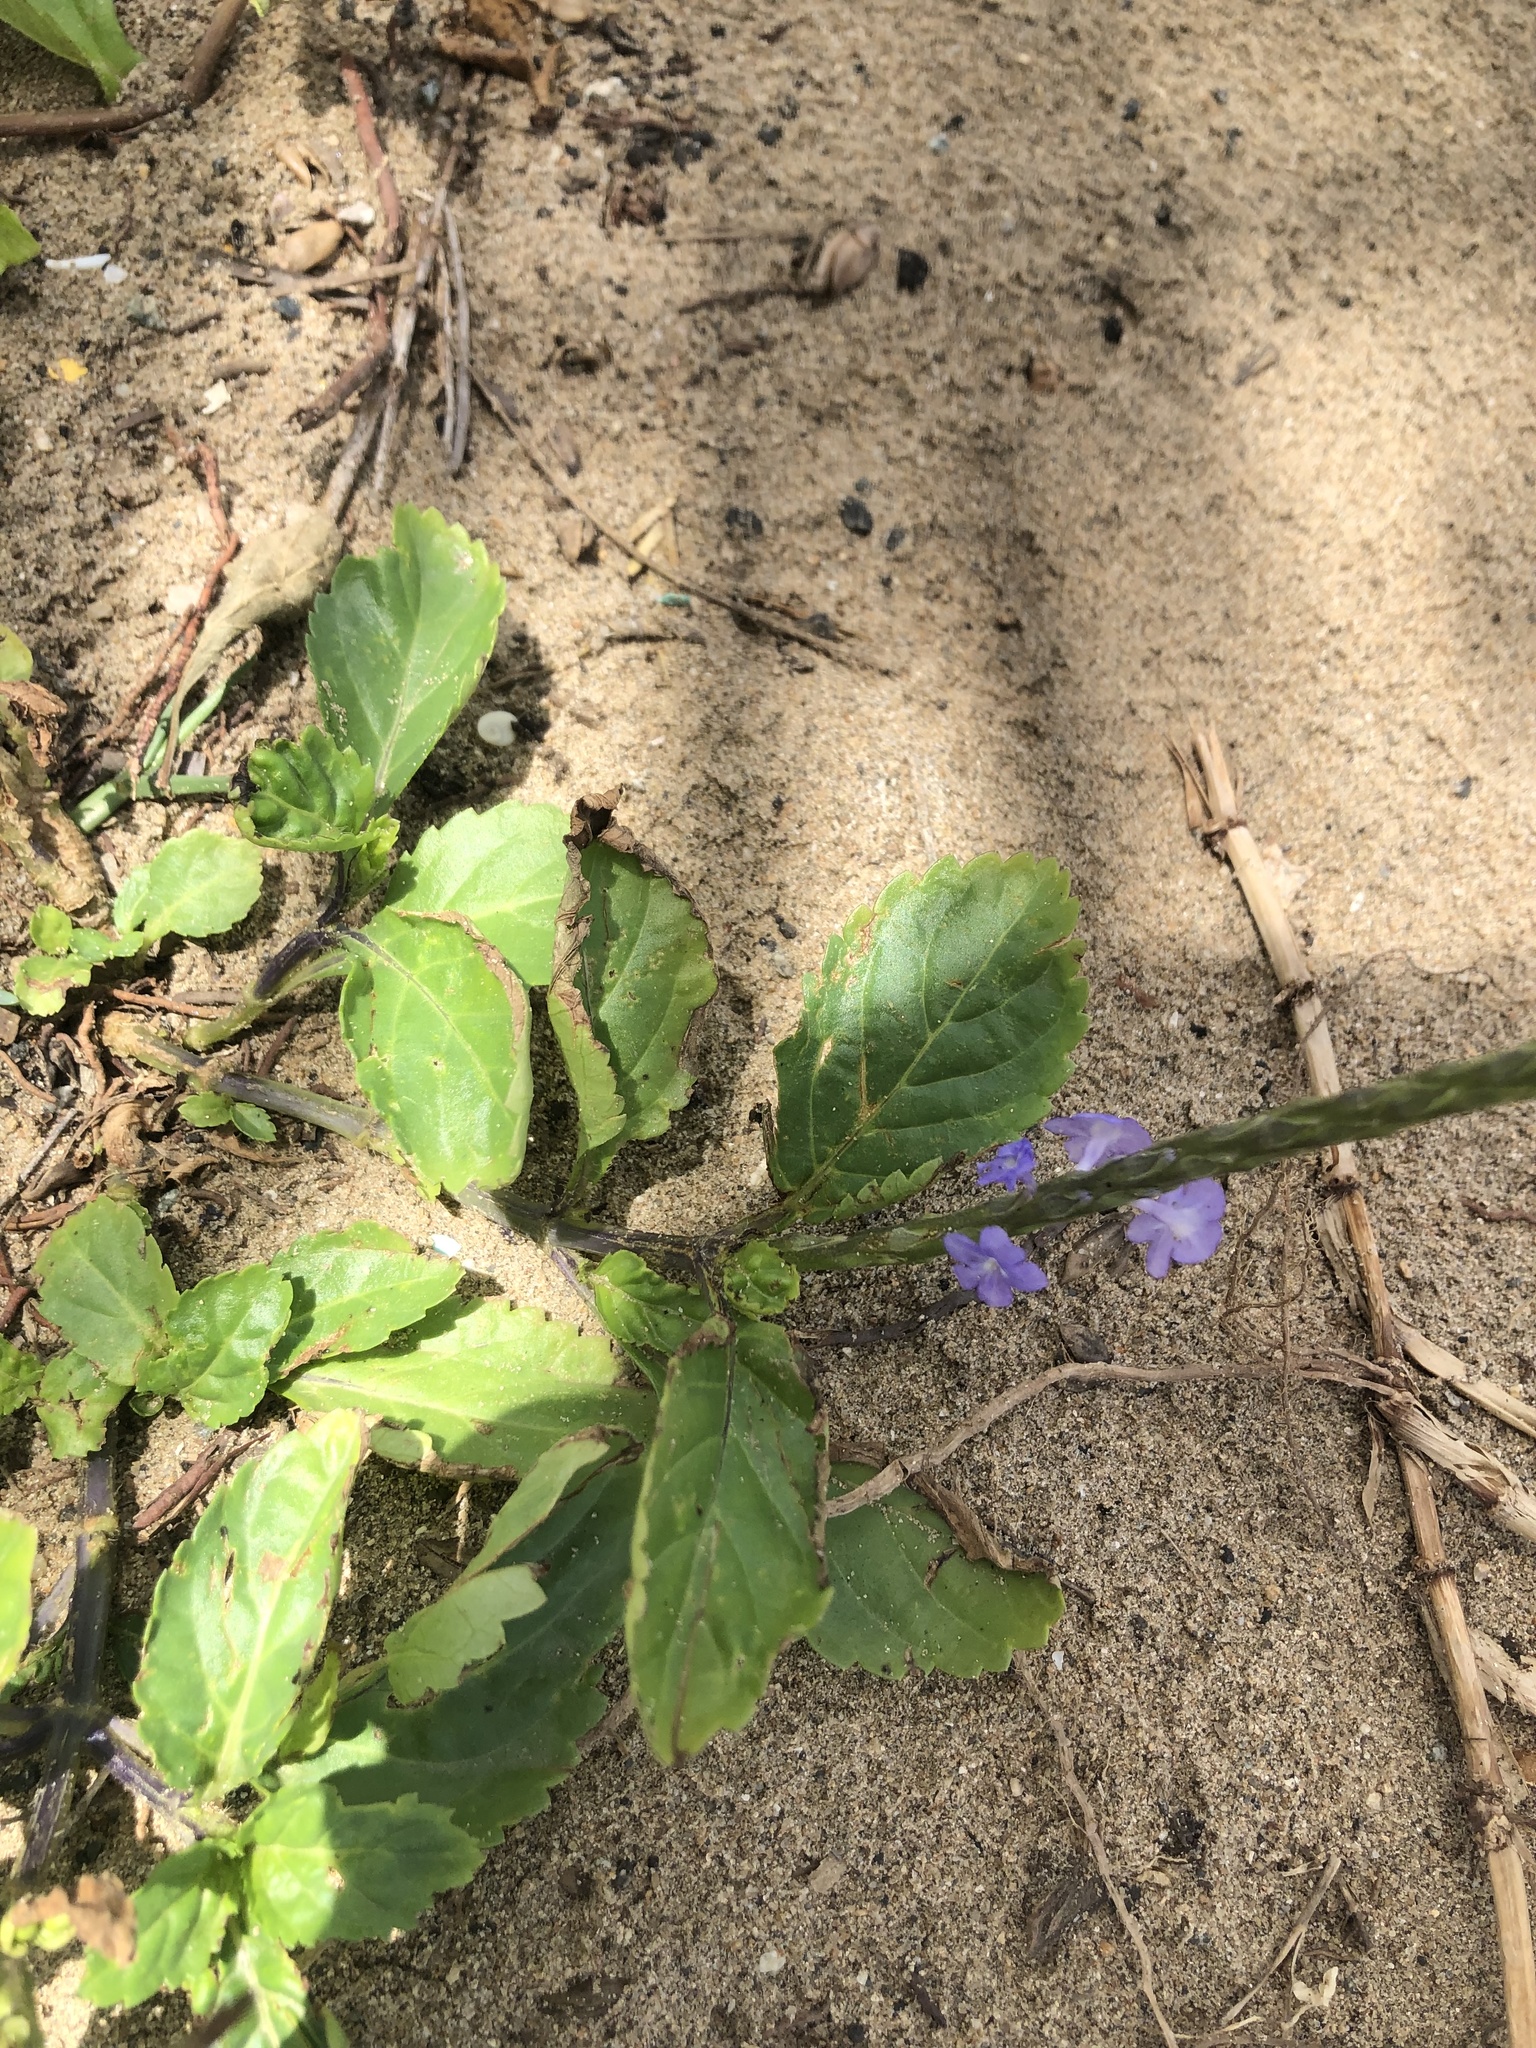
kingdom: Plantae
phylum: Tracheophyta
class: Magnoliopsida
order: Lamiales
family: Verbenaceae
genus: Stachytarpheta
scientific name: Stachytarpheta jamaicensis
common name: Light-blue snakeweed
